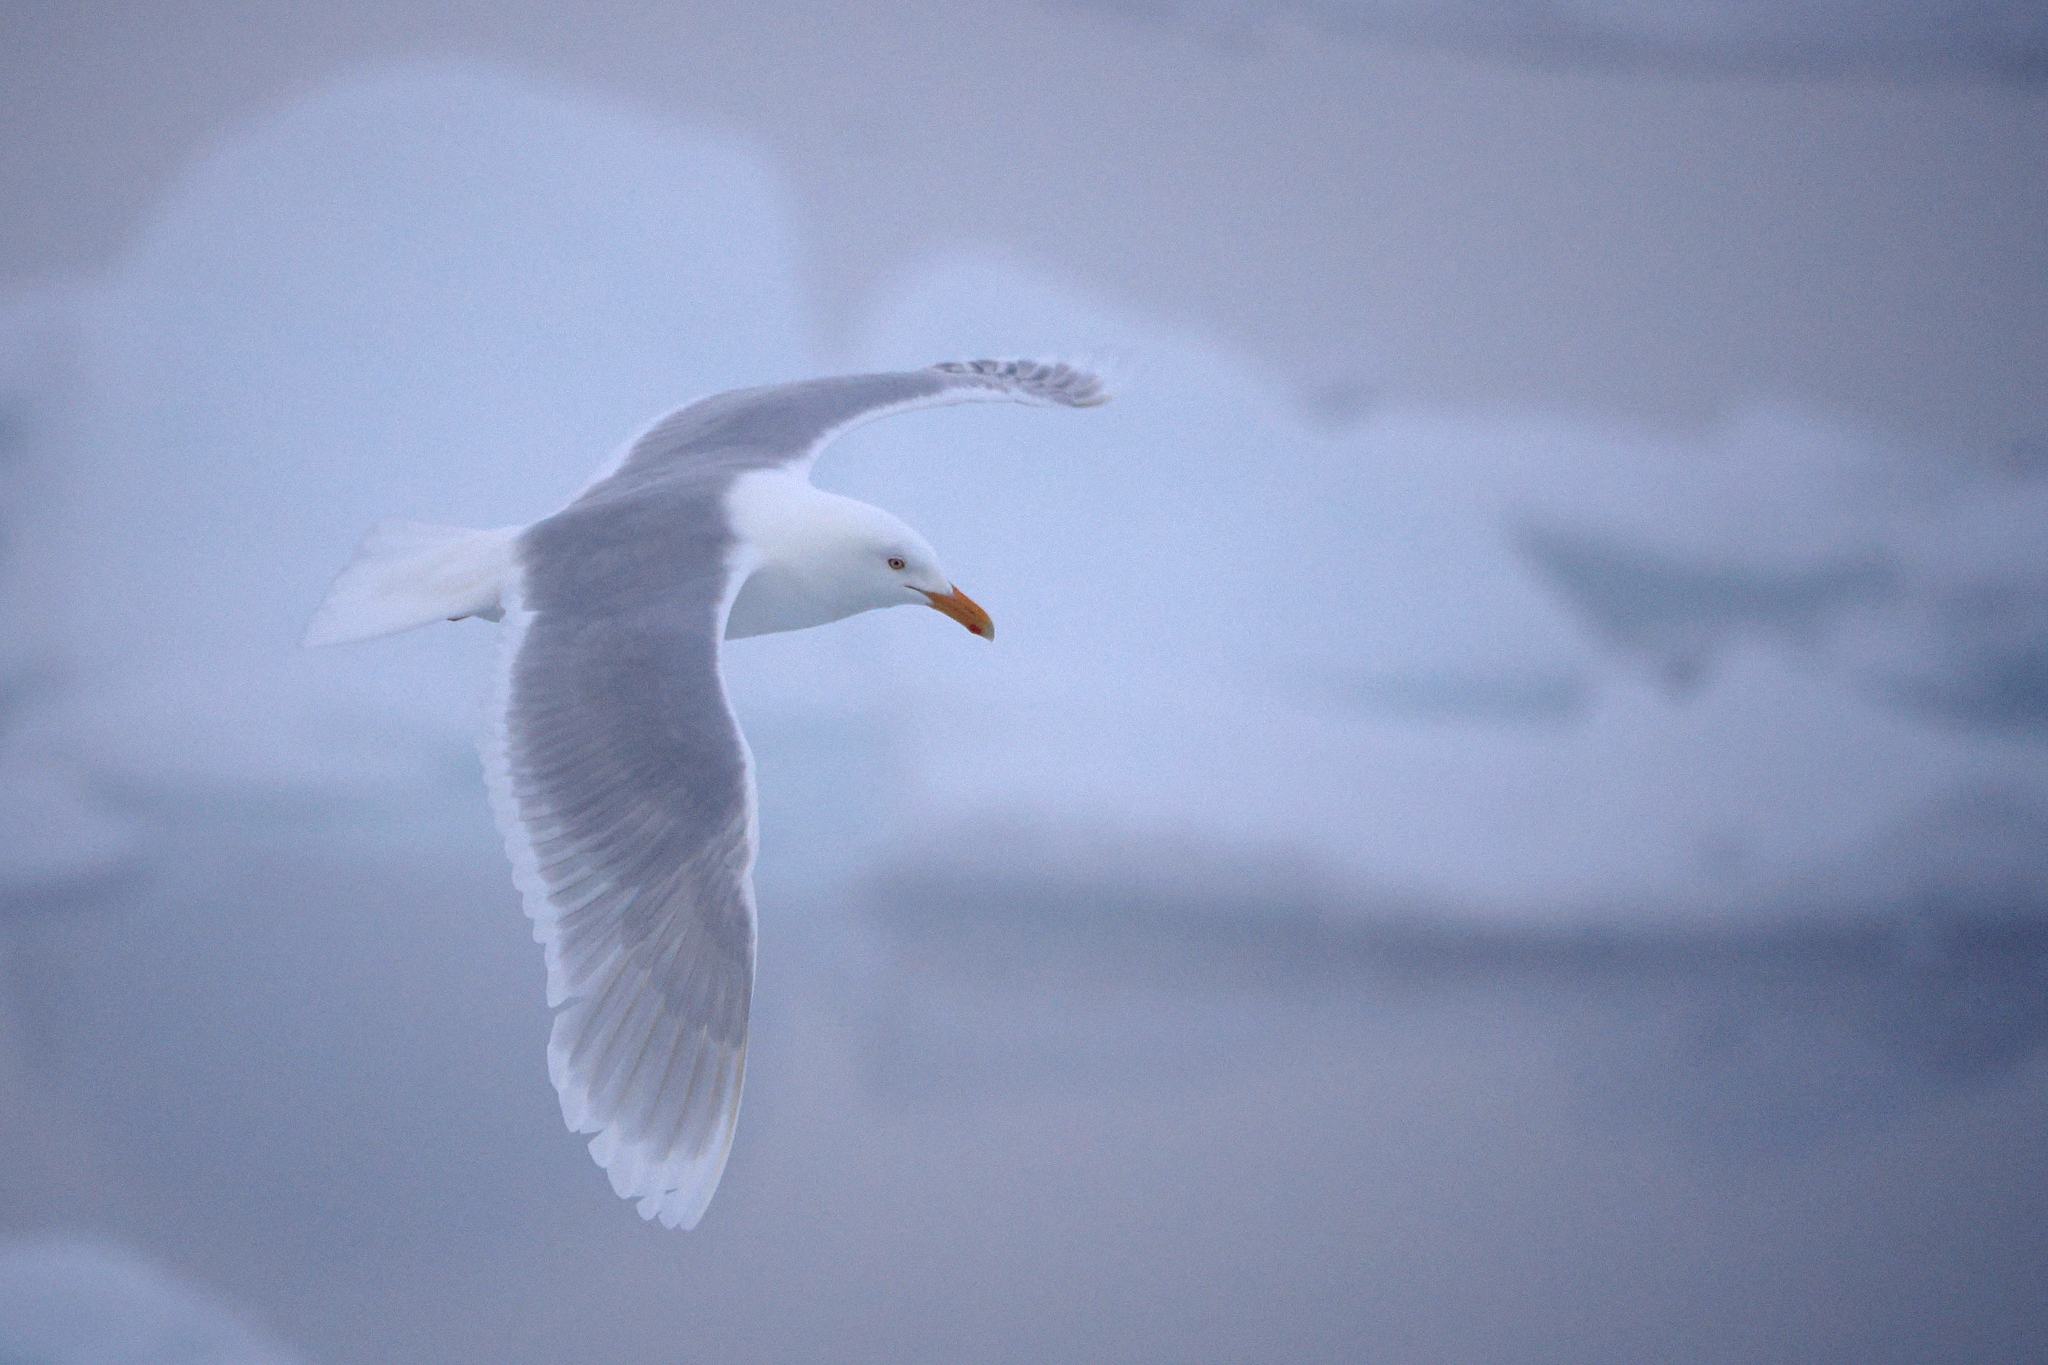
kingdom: Animalia
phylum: Chordata
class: Aves
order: Charadriiformes
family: Laridae
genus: Larus
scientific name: Larus hyperboreus
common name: Glaucous gull
